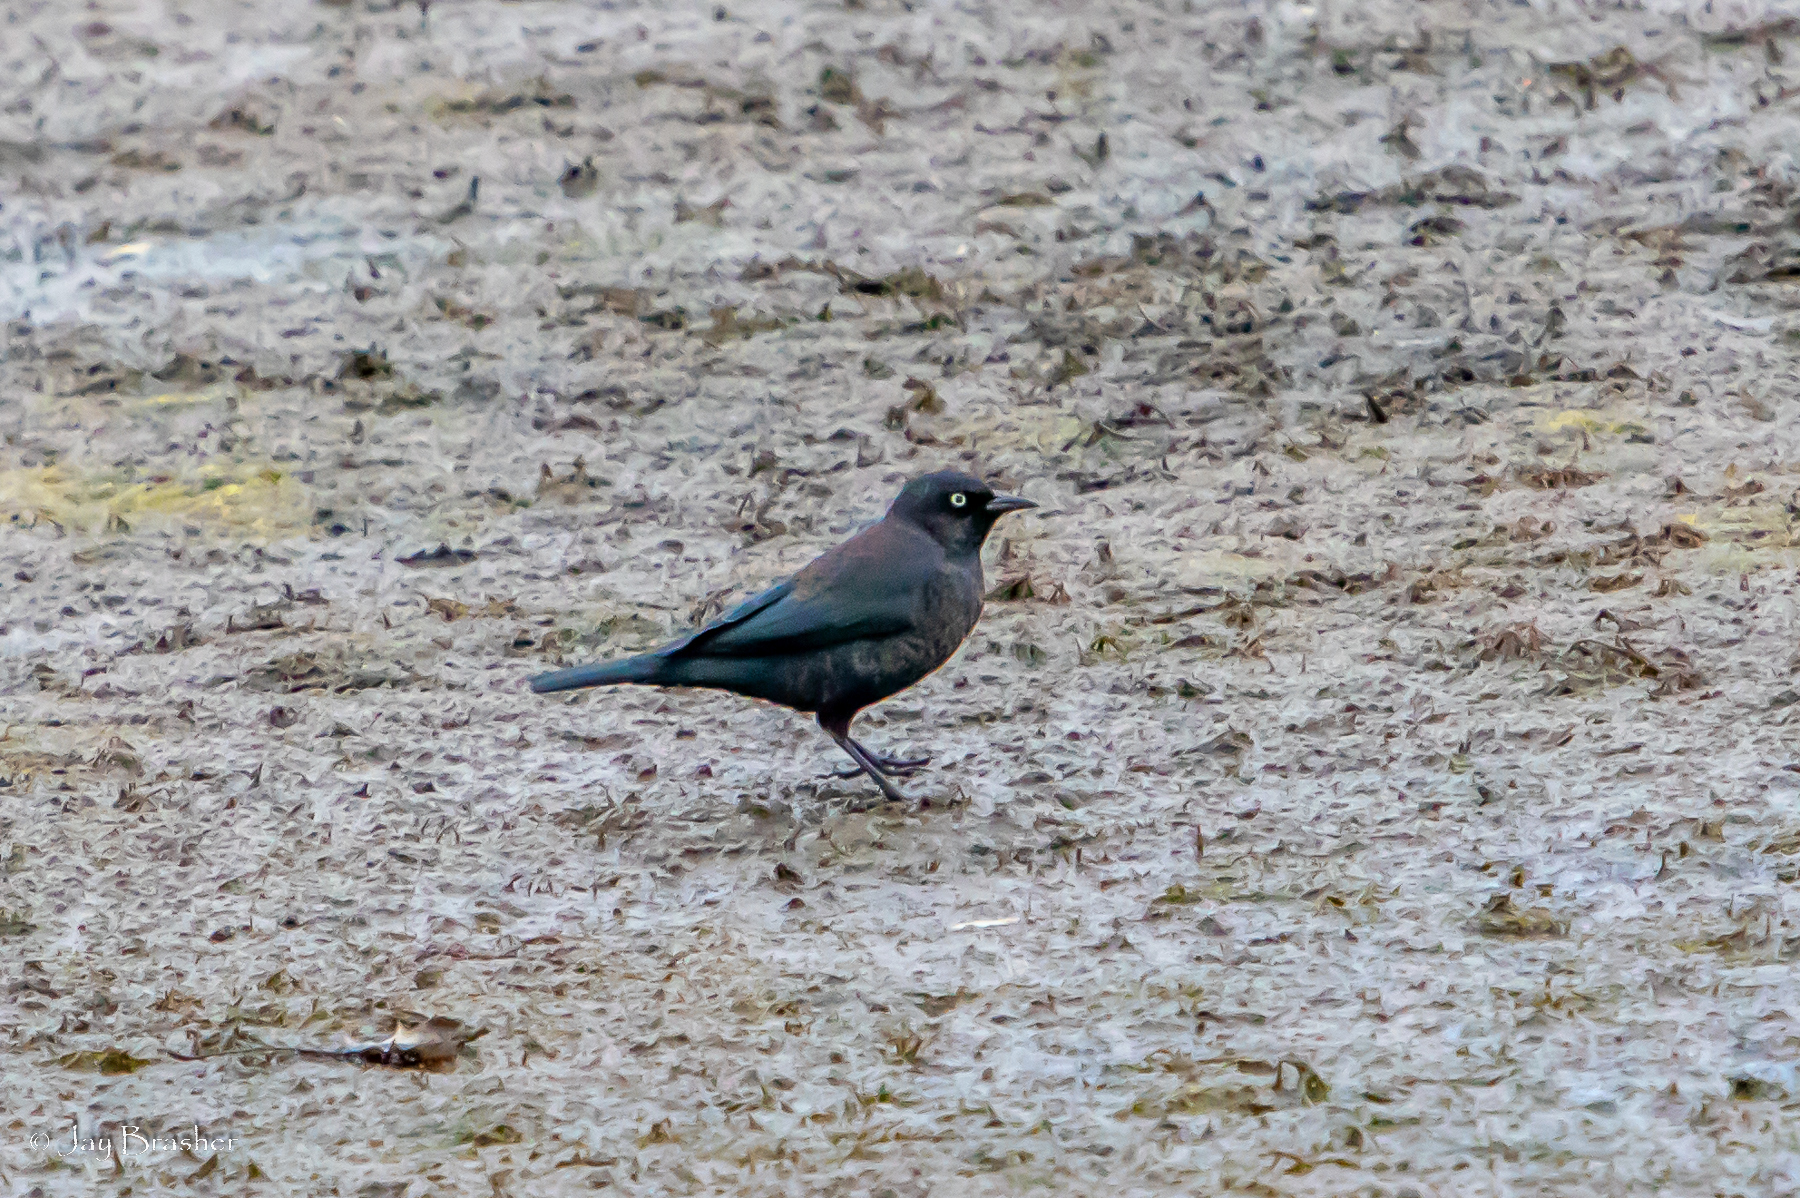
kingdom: Animalia
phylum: Chordata
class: Aves
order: Passeriformes
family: Icteridae
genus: Euphagus
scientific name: Euphagus carolinus
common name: Rusty blackbird
